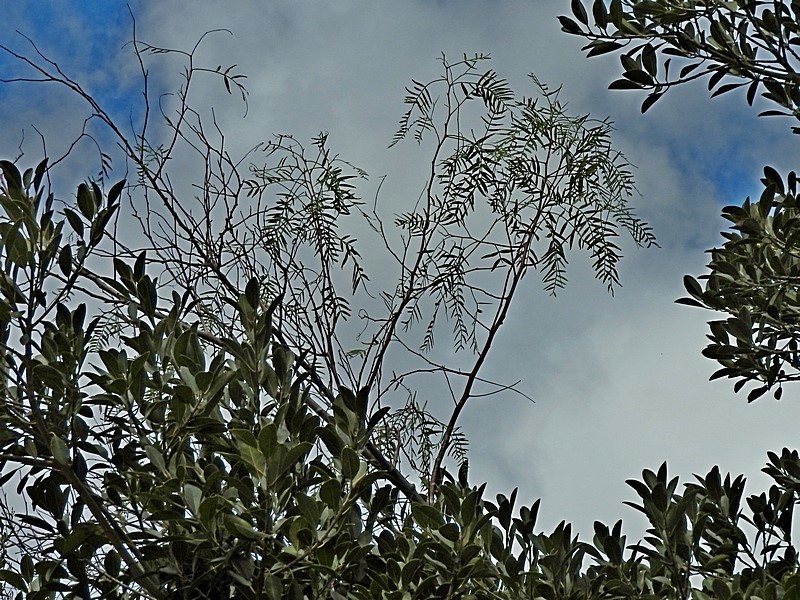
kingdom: Plantae
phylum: Tracheophyta
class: Magnoliopsida
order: Sapindales
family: Anacardiaceae
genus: Schinus
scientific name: Schinus molle
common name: Peruvian peppertree
